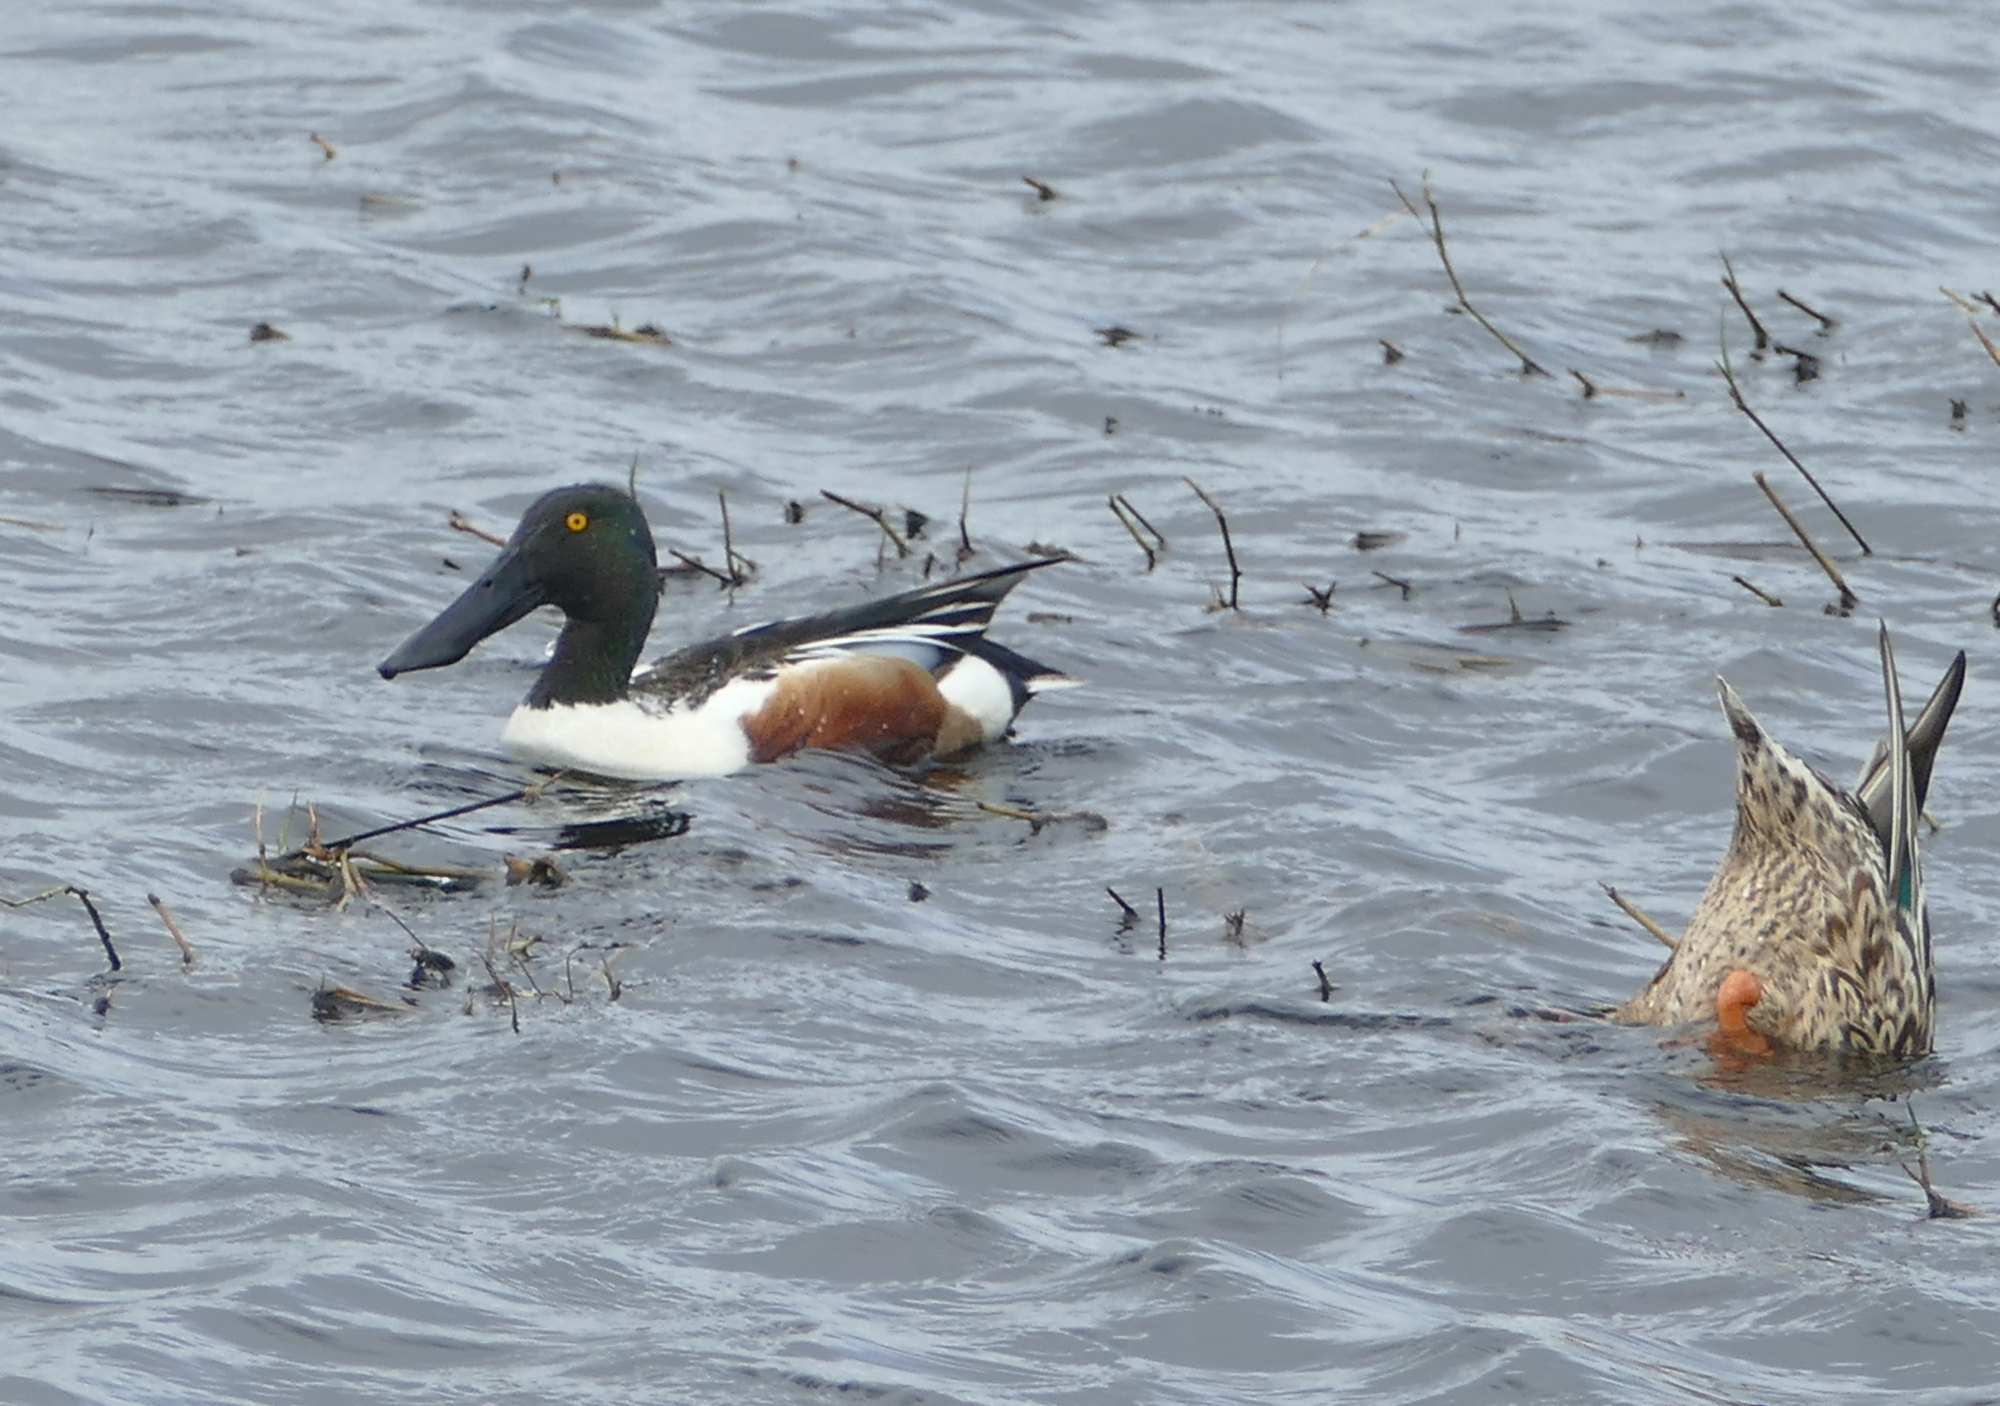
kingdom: Animalia
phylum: Chordata
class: Aves
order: Anseriformes
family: Anatidae
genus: Spatula
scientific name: Spatula clypeata
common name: Northern shoveler
